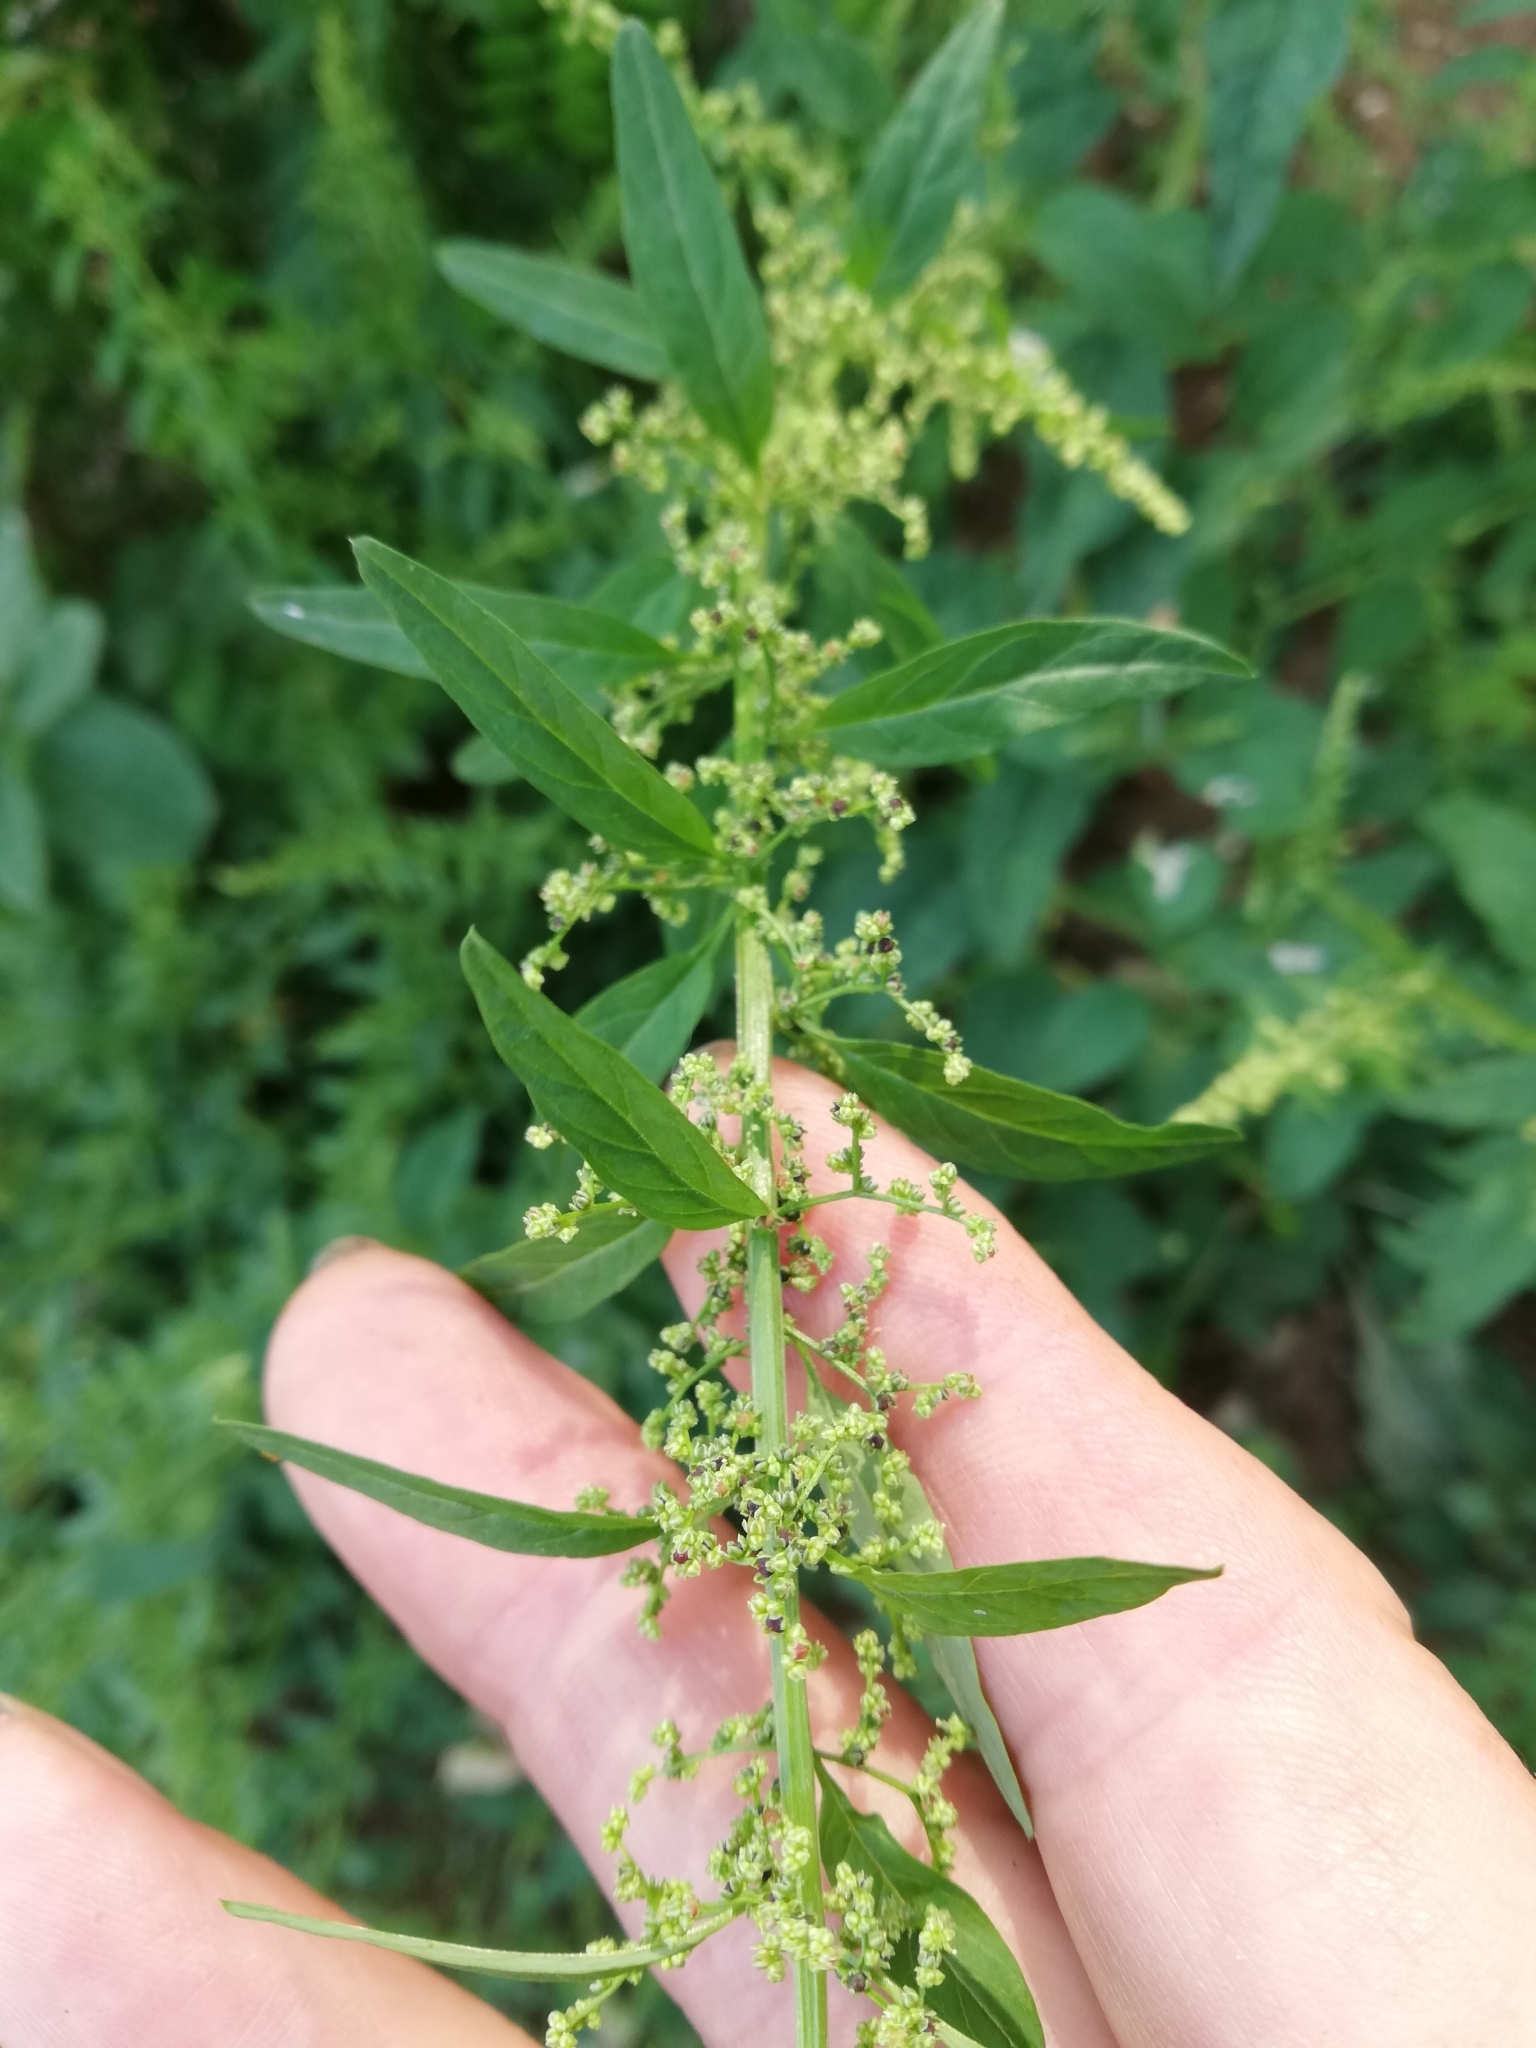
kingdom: Plantae
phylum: Tracheophyta
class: Magnoliopsida
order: Caryophyllales
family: Amaranthaceae
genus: Lipandra
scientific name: Lipandra polysperma
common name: Many-seed goosefoot
